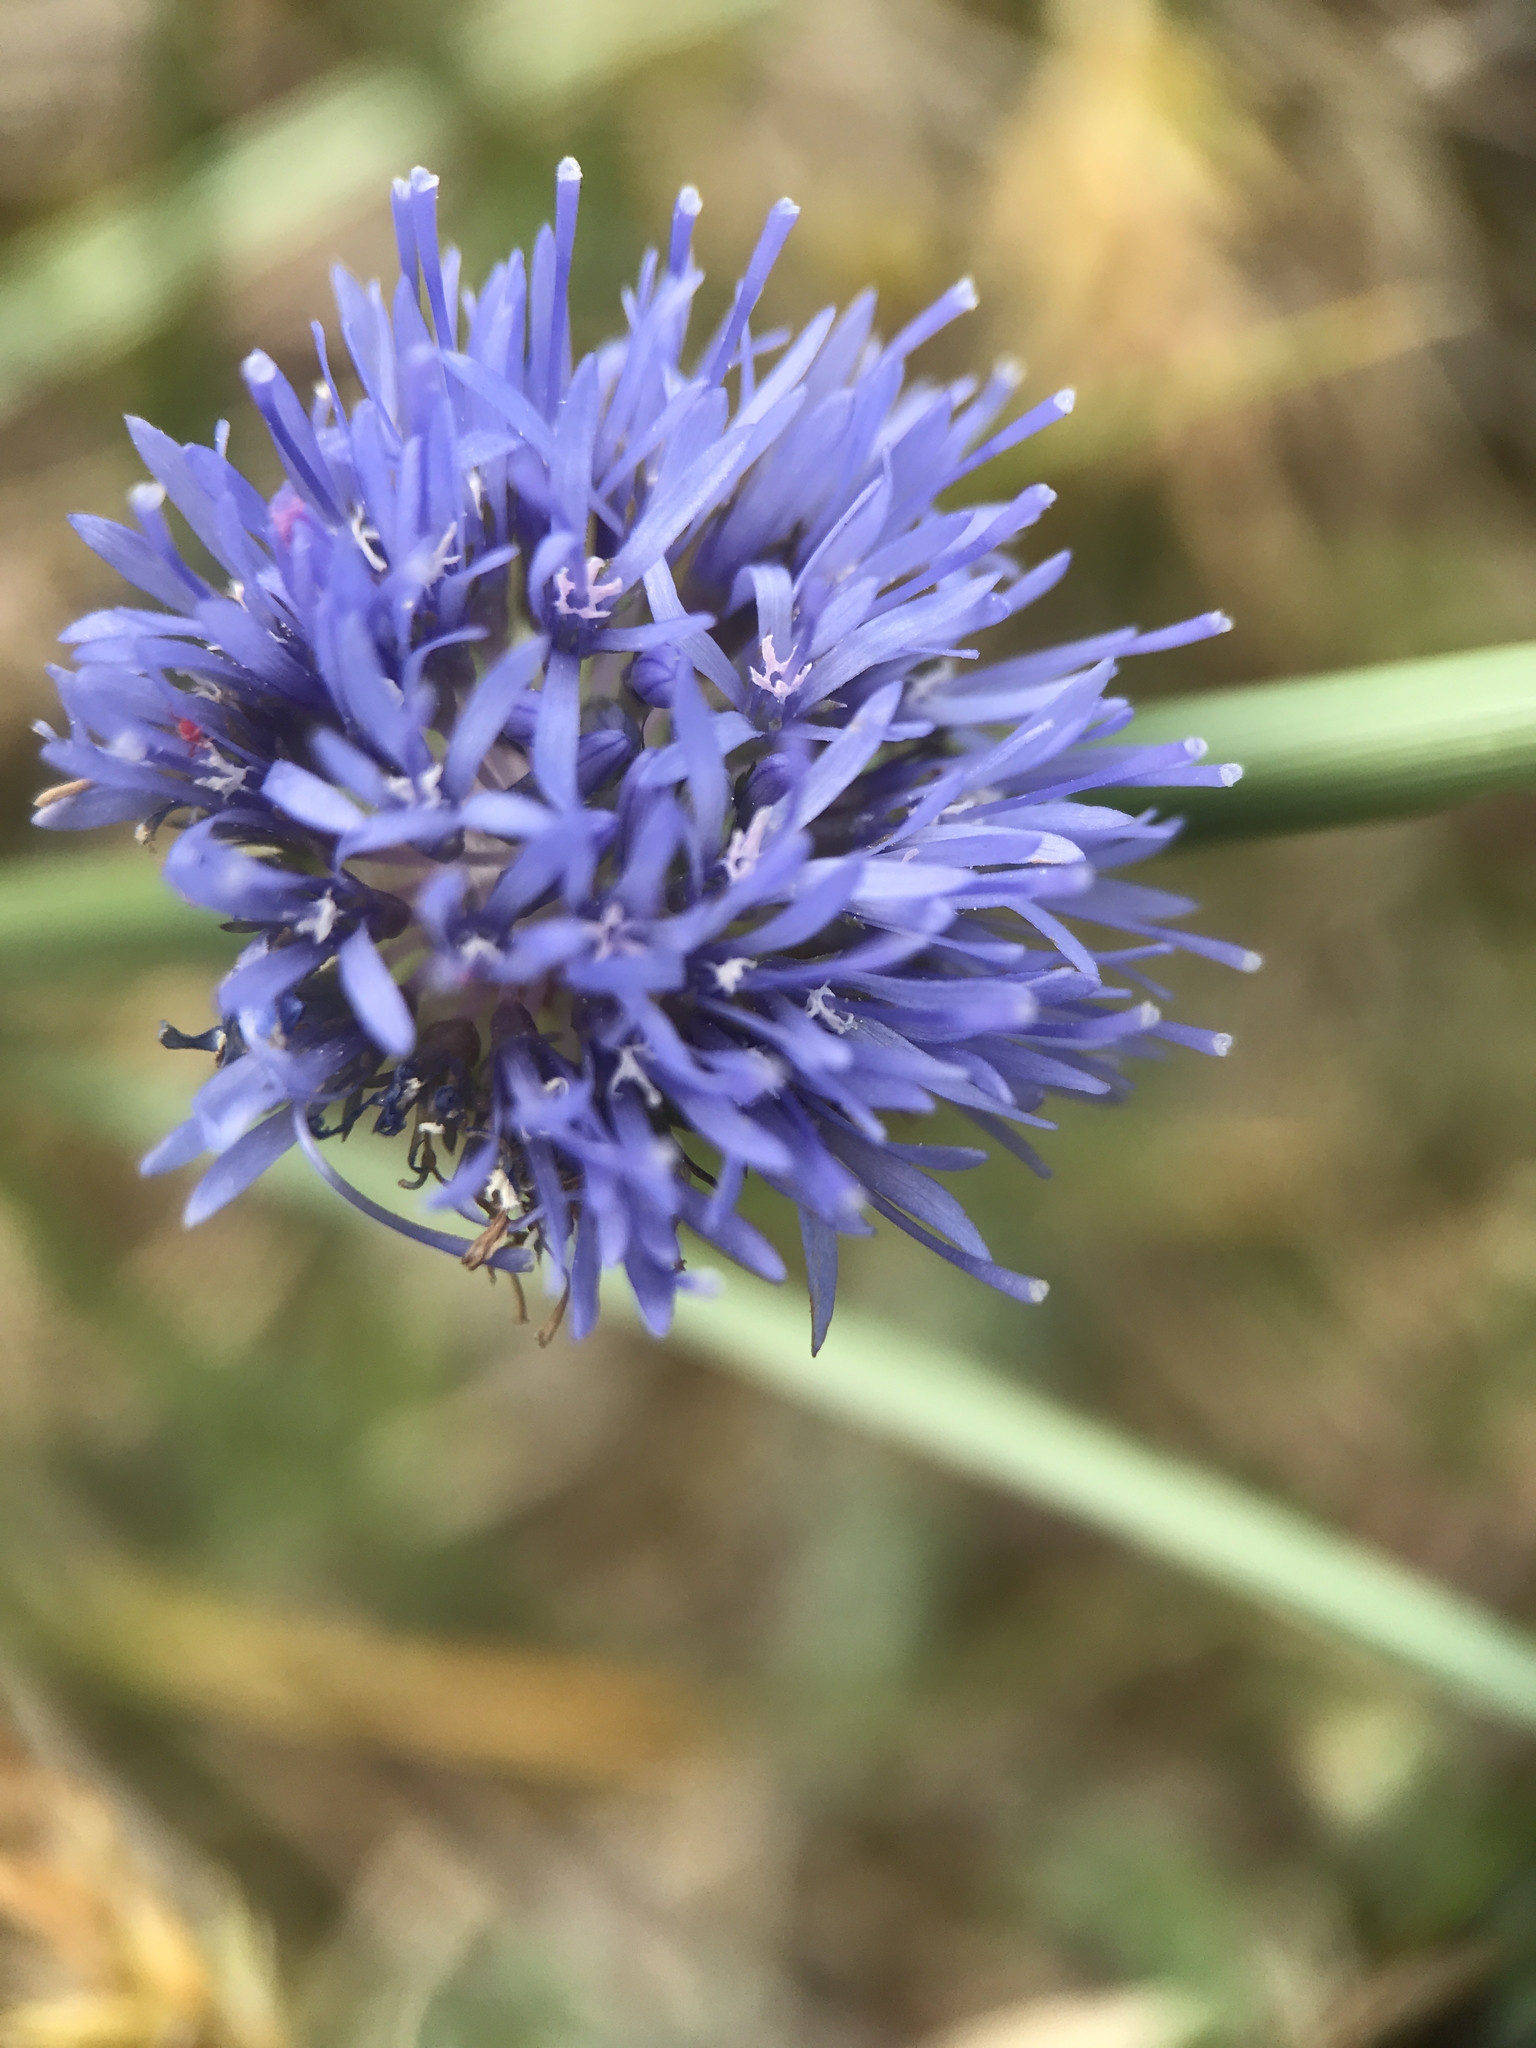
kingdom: Plantae
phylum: Tracheophyta
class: Magnoliopsida
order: Asterales
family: Campanulaceae
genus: Jasione
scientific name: Jasione montana
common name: Sheep's-bit
